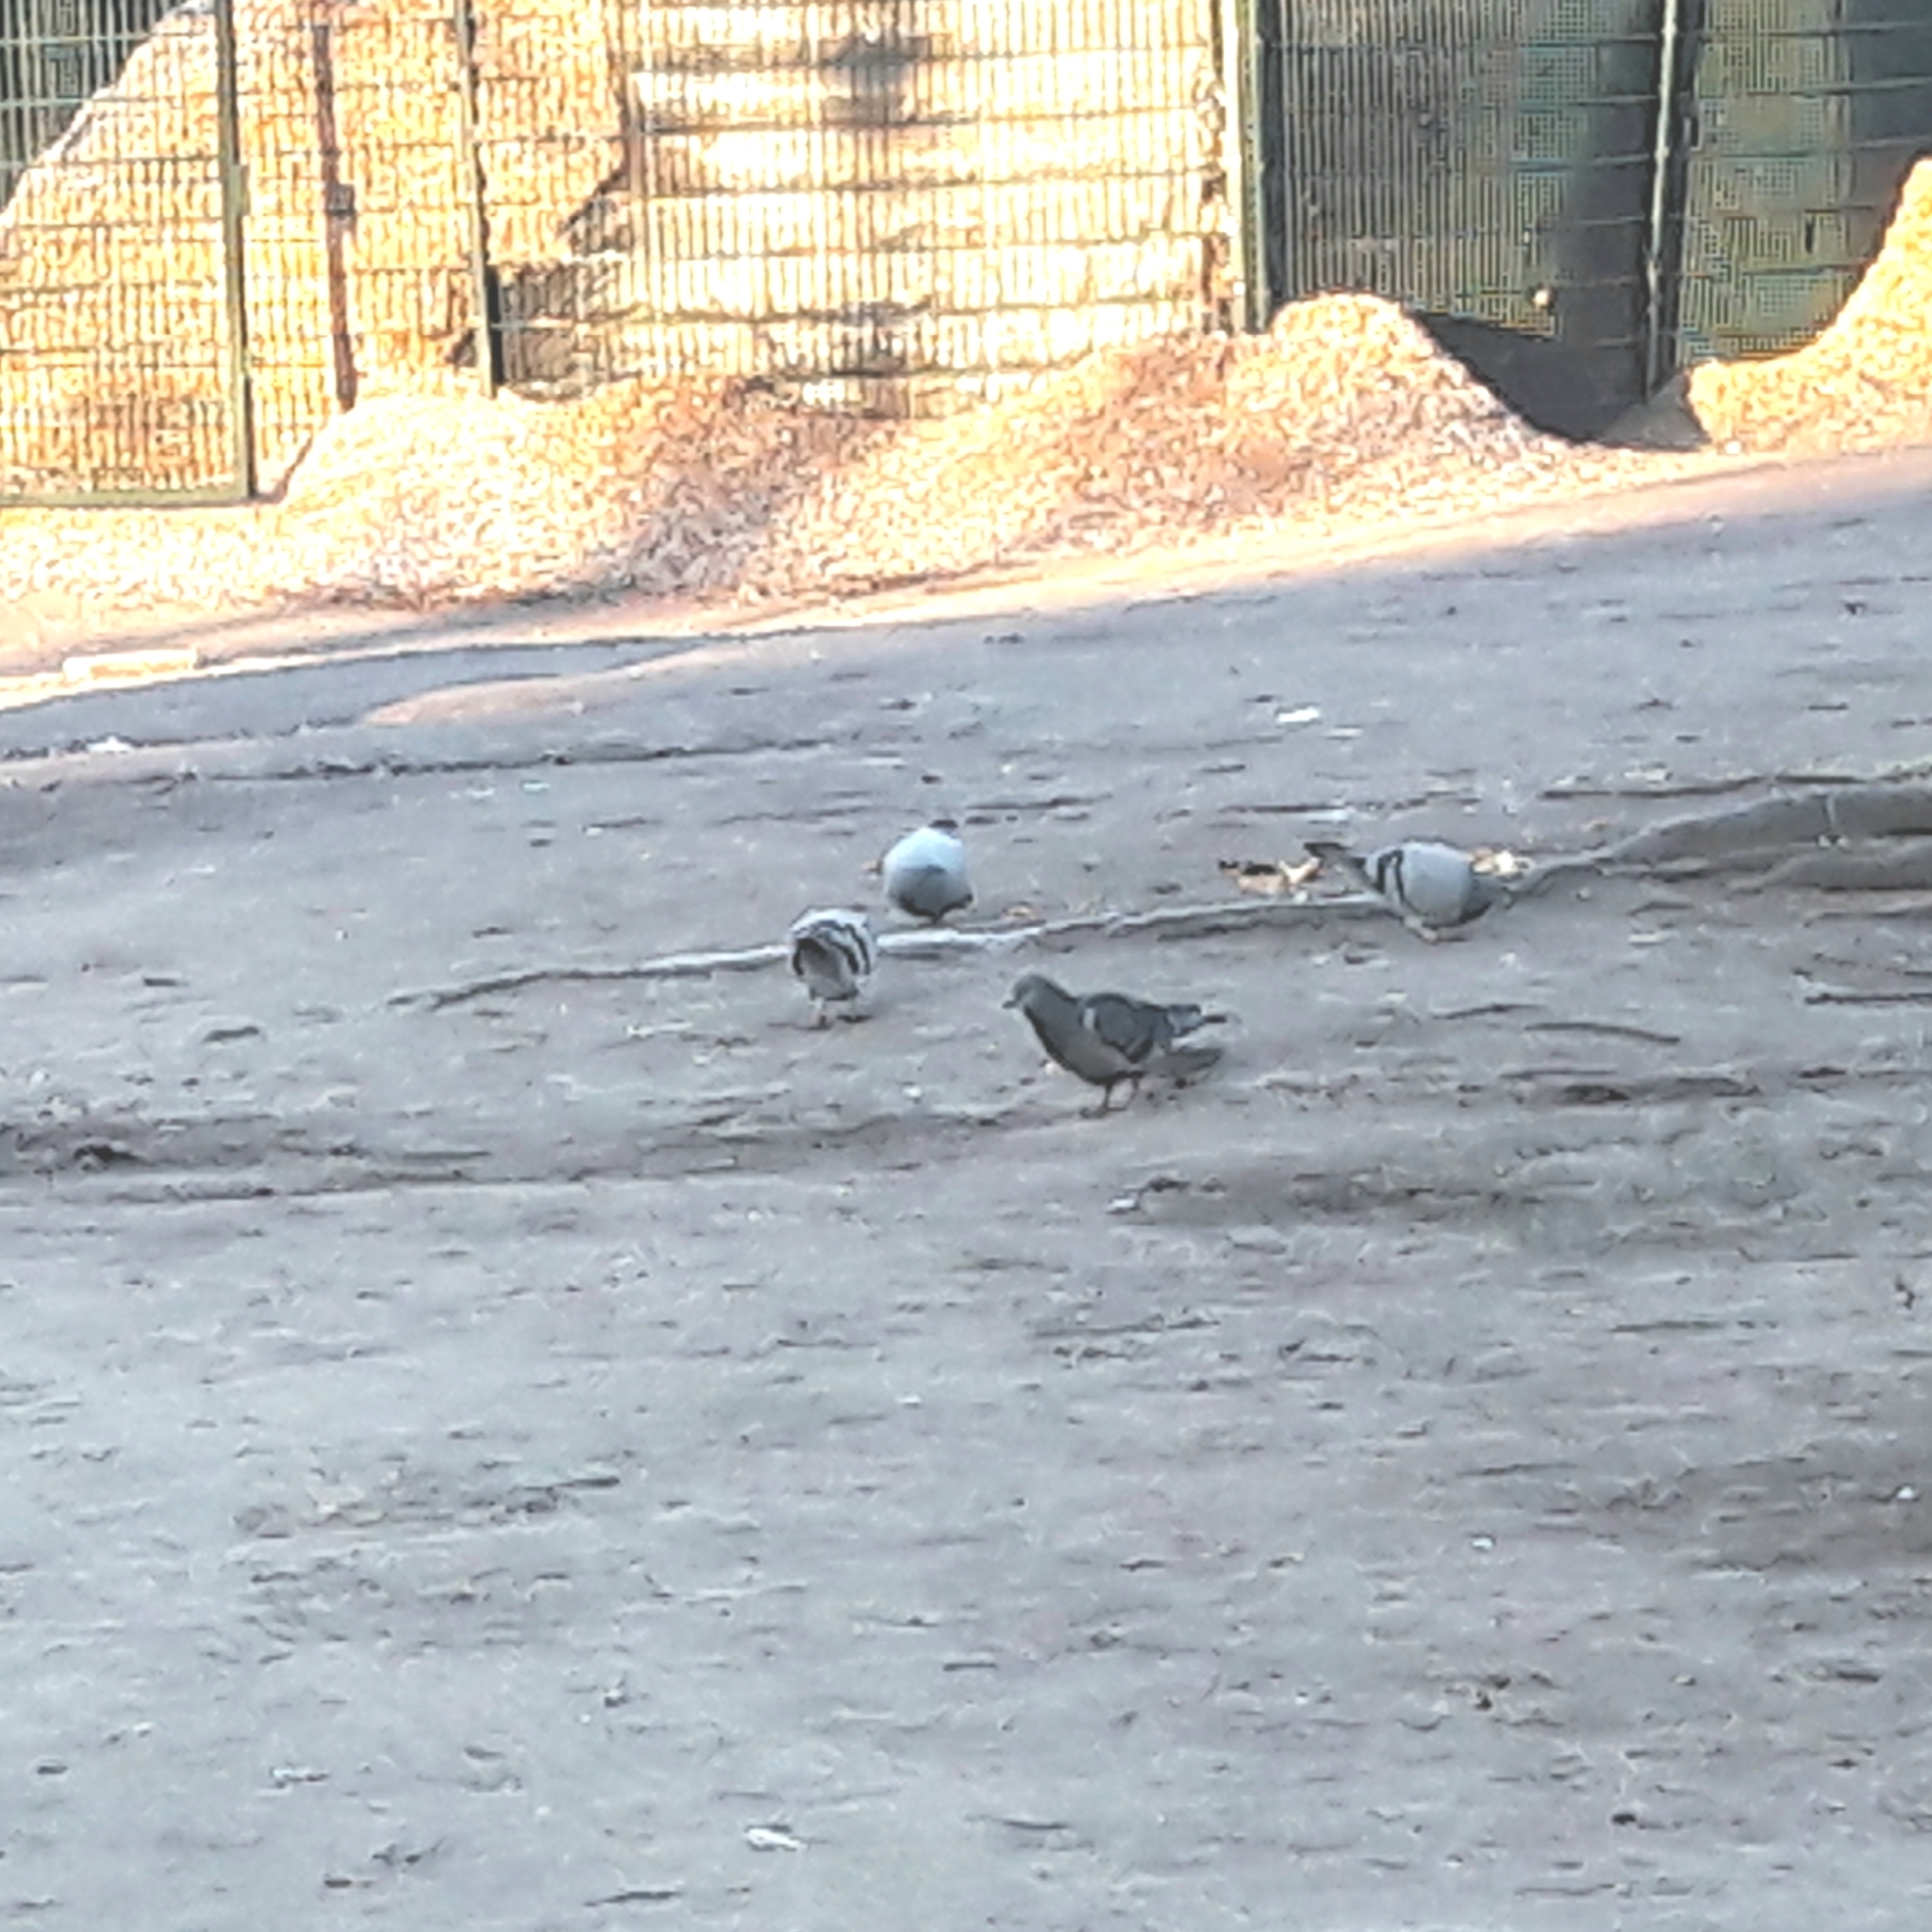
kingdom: Animalia
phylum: Chordata
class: Aves
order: Columbiformes
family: Columbidae
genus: Columba
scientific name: Columba livia
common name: Rock pigeon
